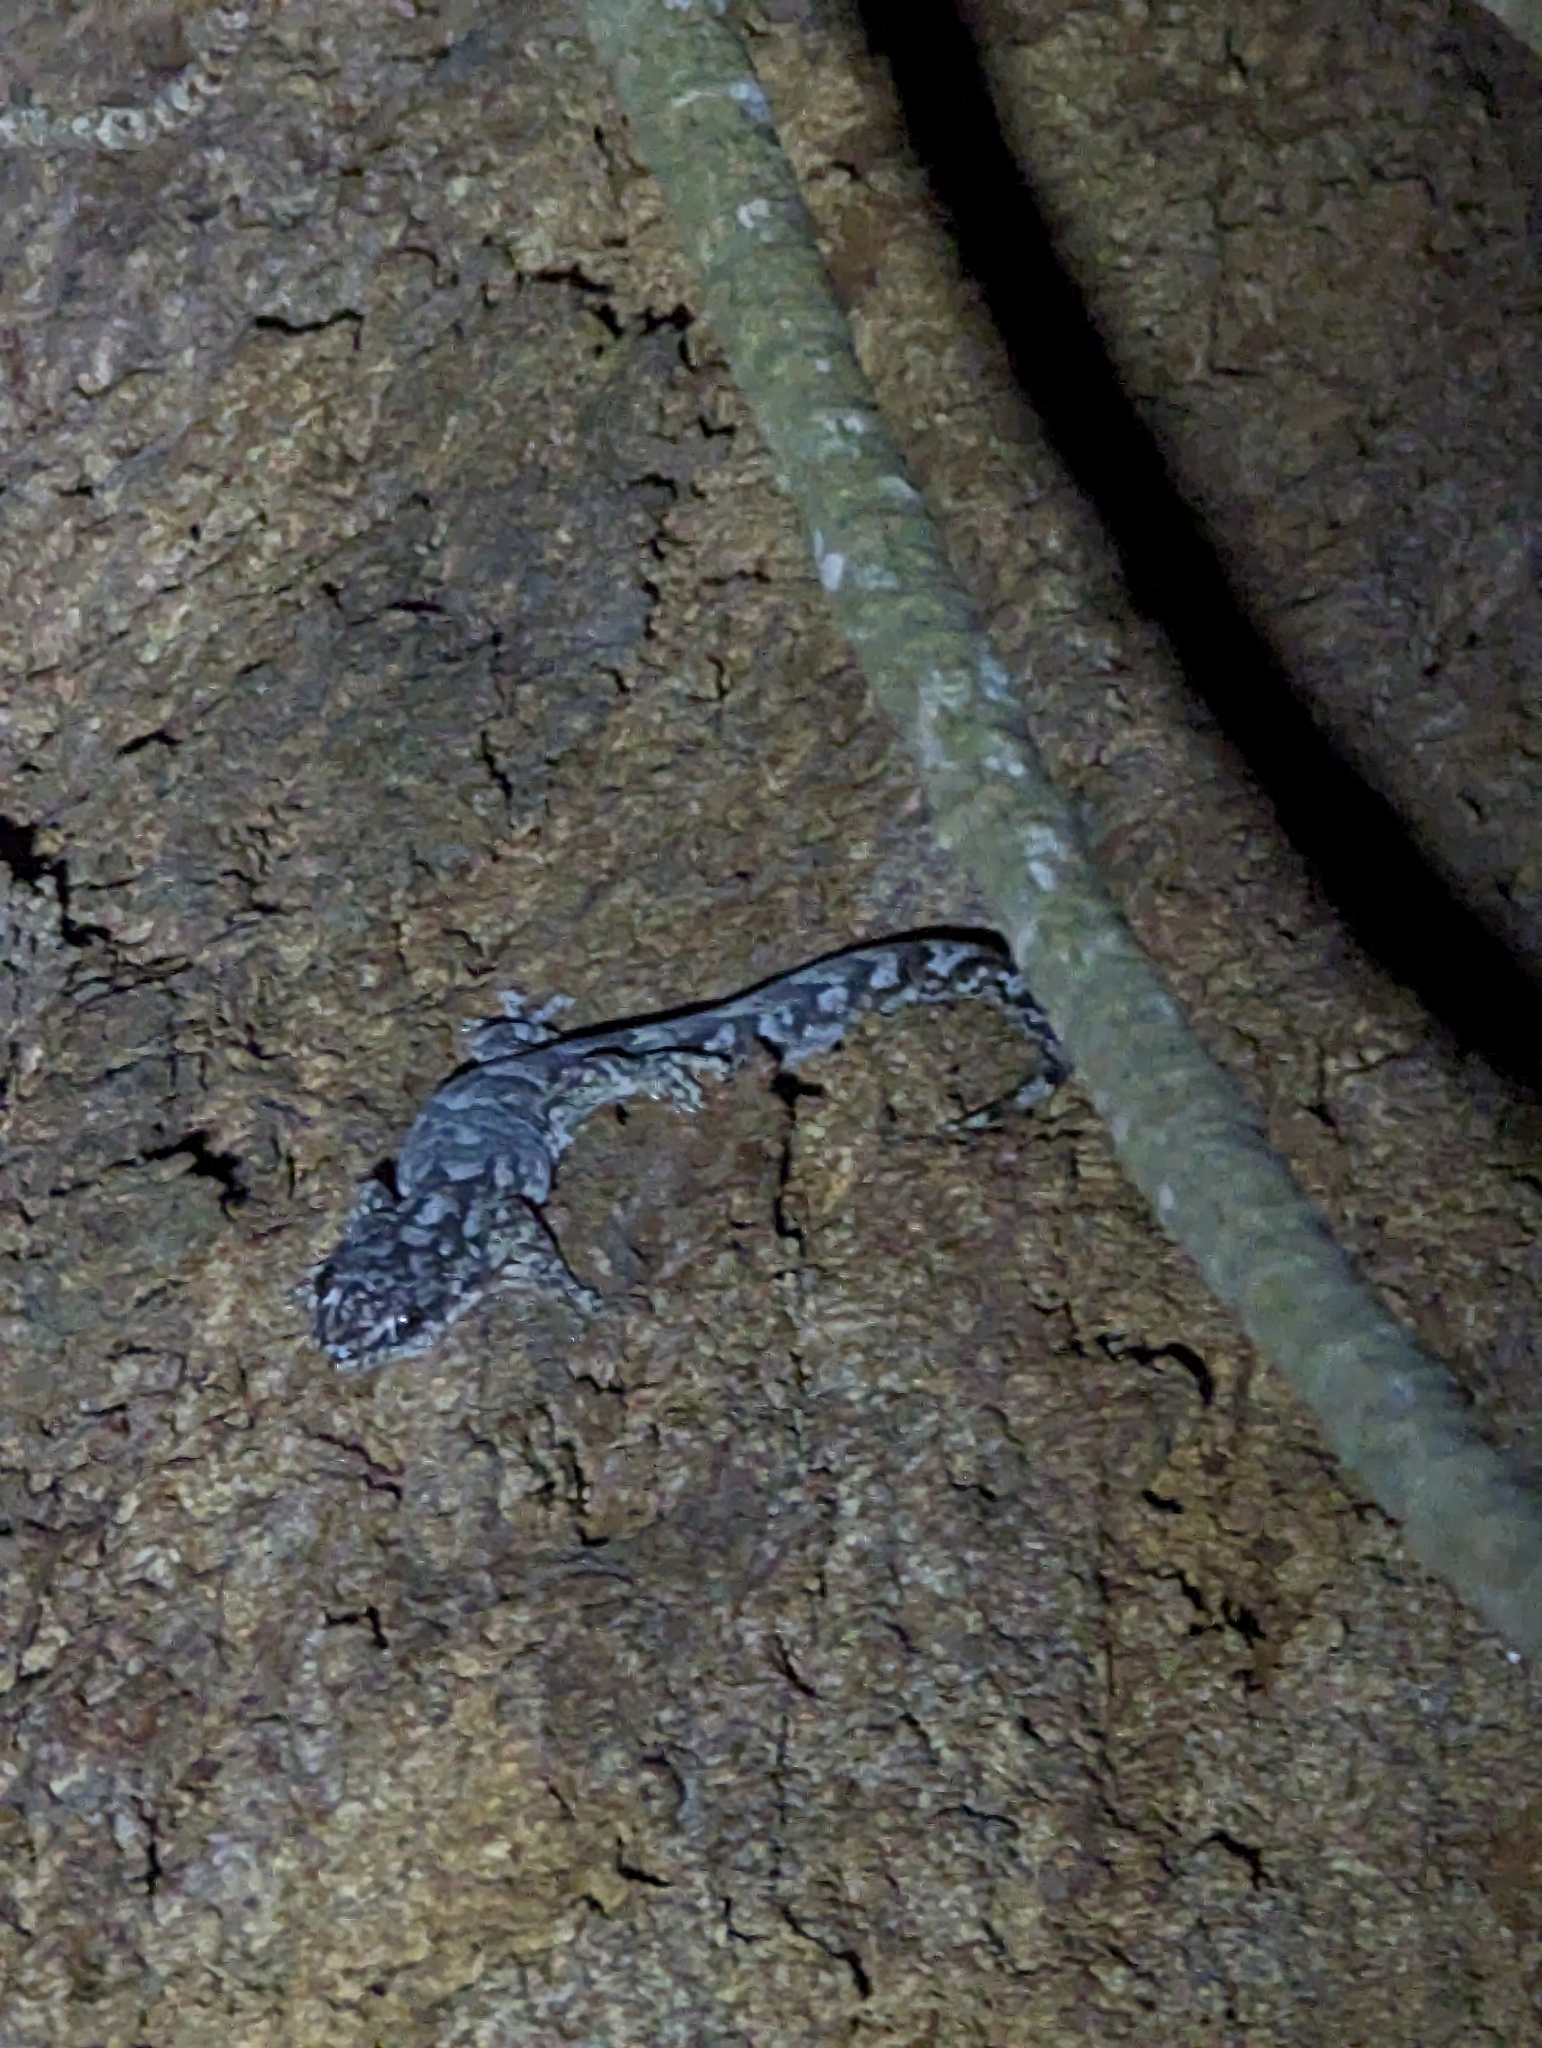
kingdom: Animalia
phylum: Chordata
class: Squamata
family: Gekkonidae
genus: Christinus
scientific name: Christinus marmoratus
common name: Marbled gecko
